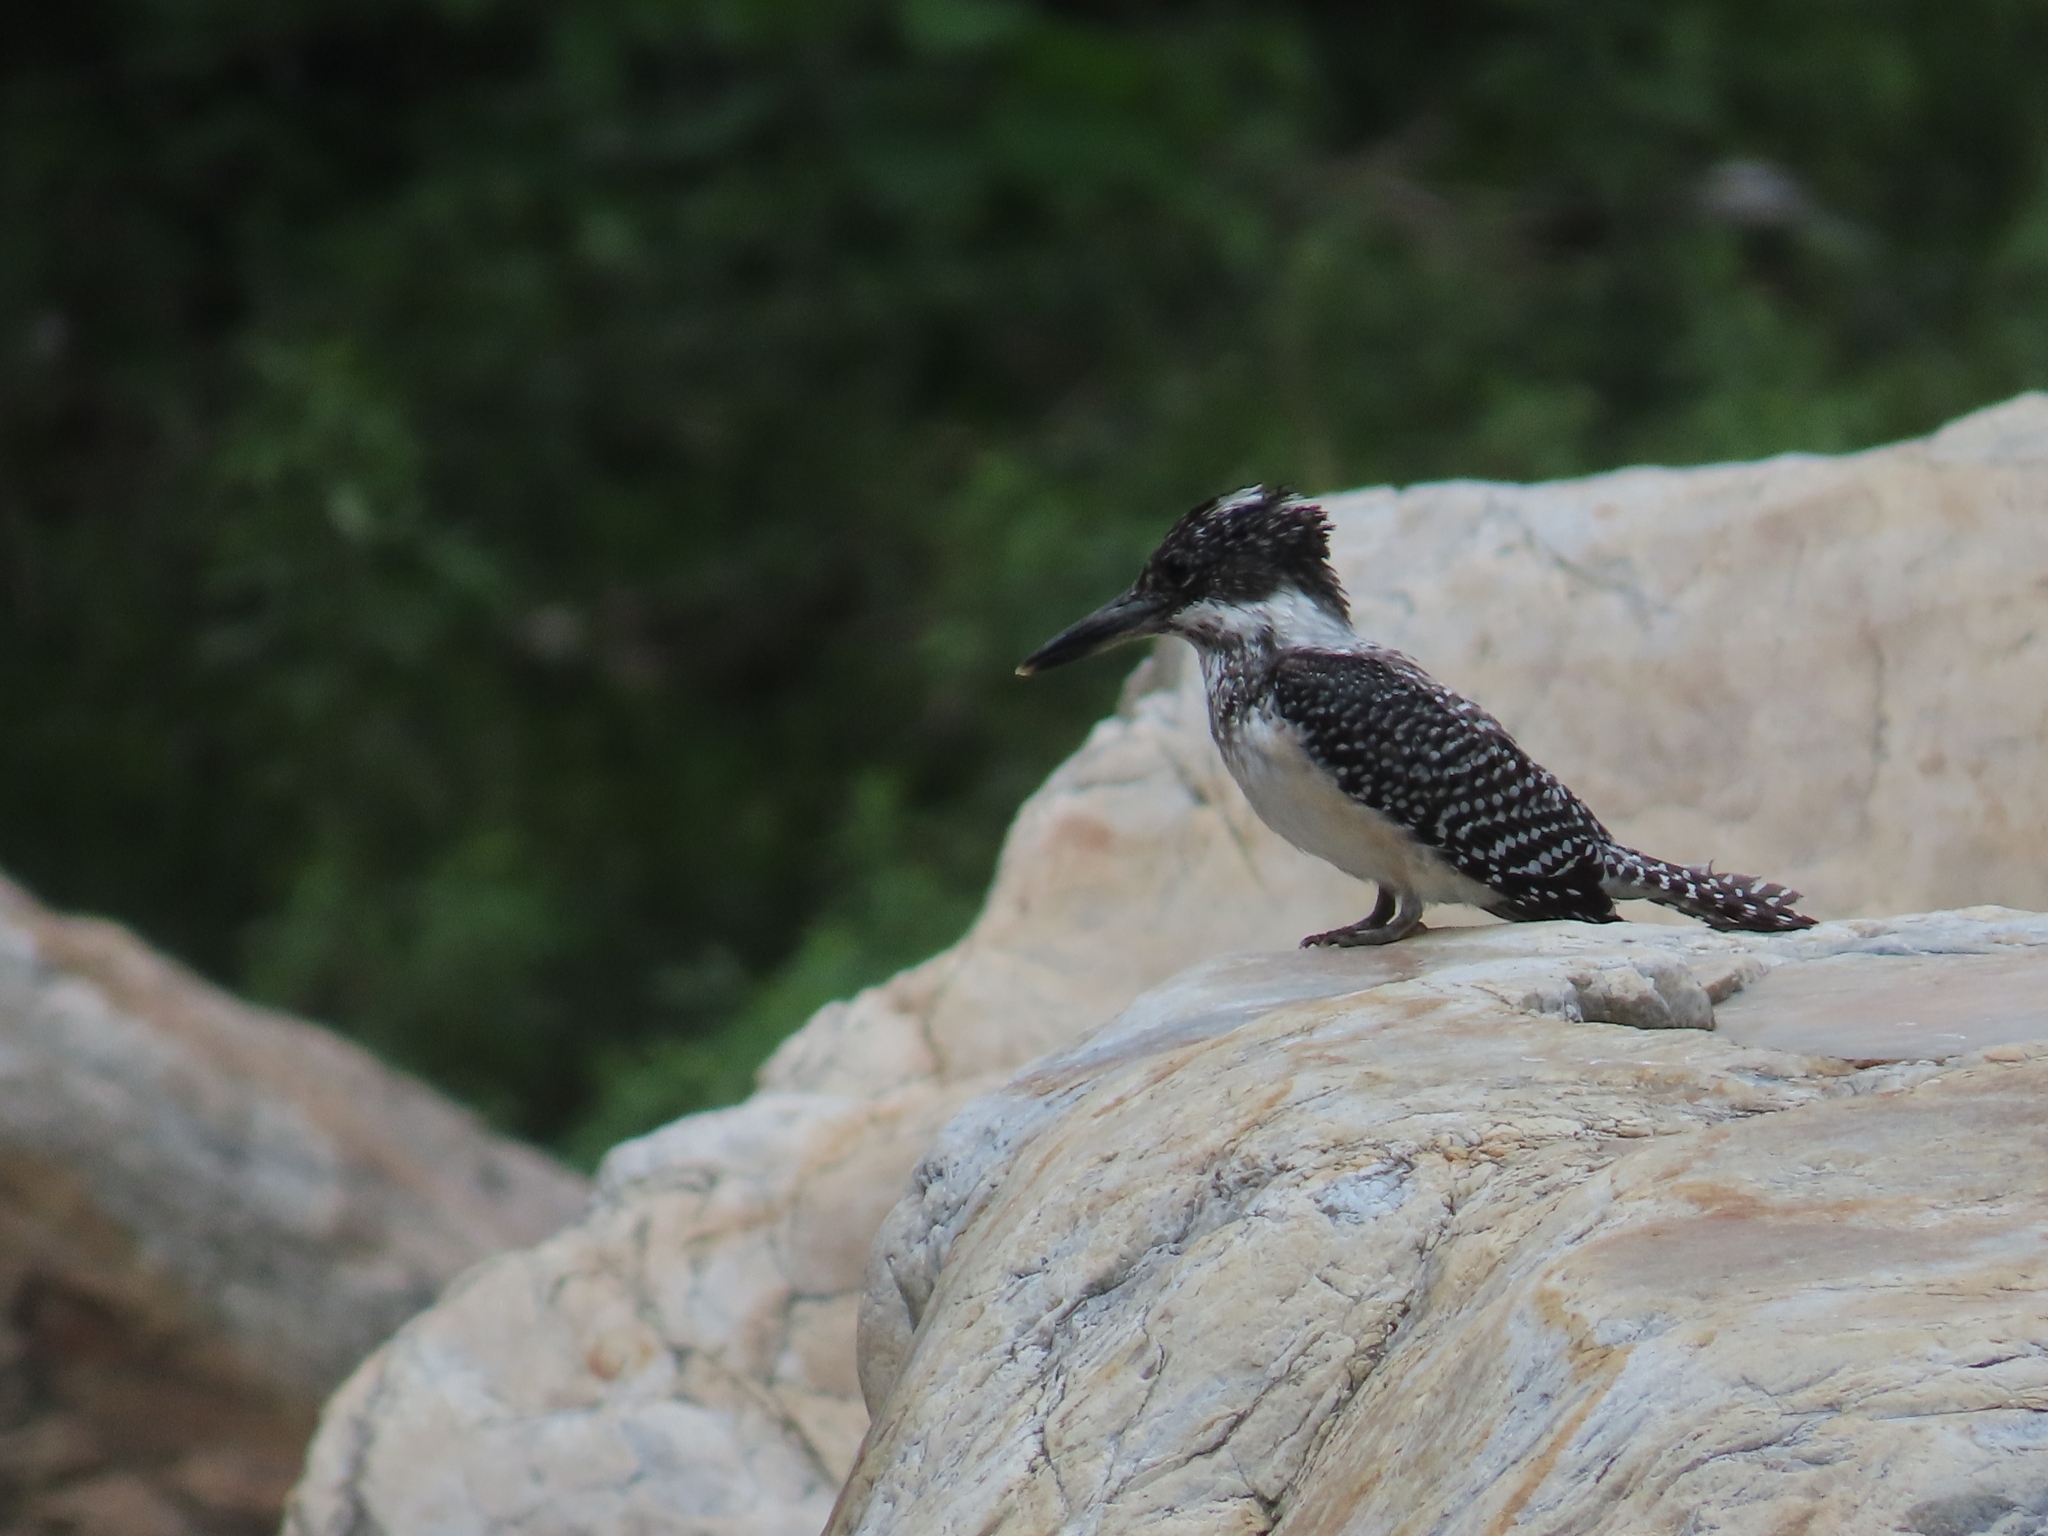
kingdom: Animalia
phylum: Chordata
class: Aves
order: Coraciiformes
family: Alcedinidae
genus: Megaceryle
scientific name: Megaceryle lugubris
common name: Crested kingfisher
